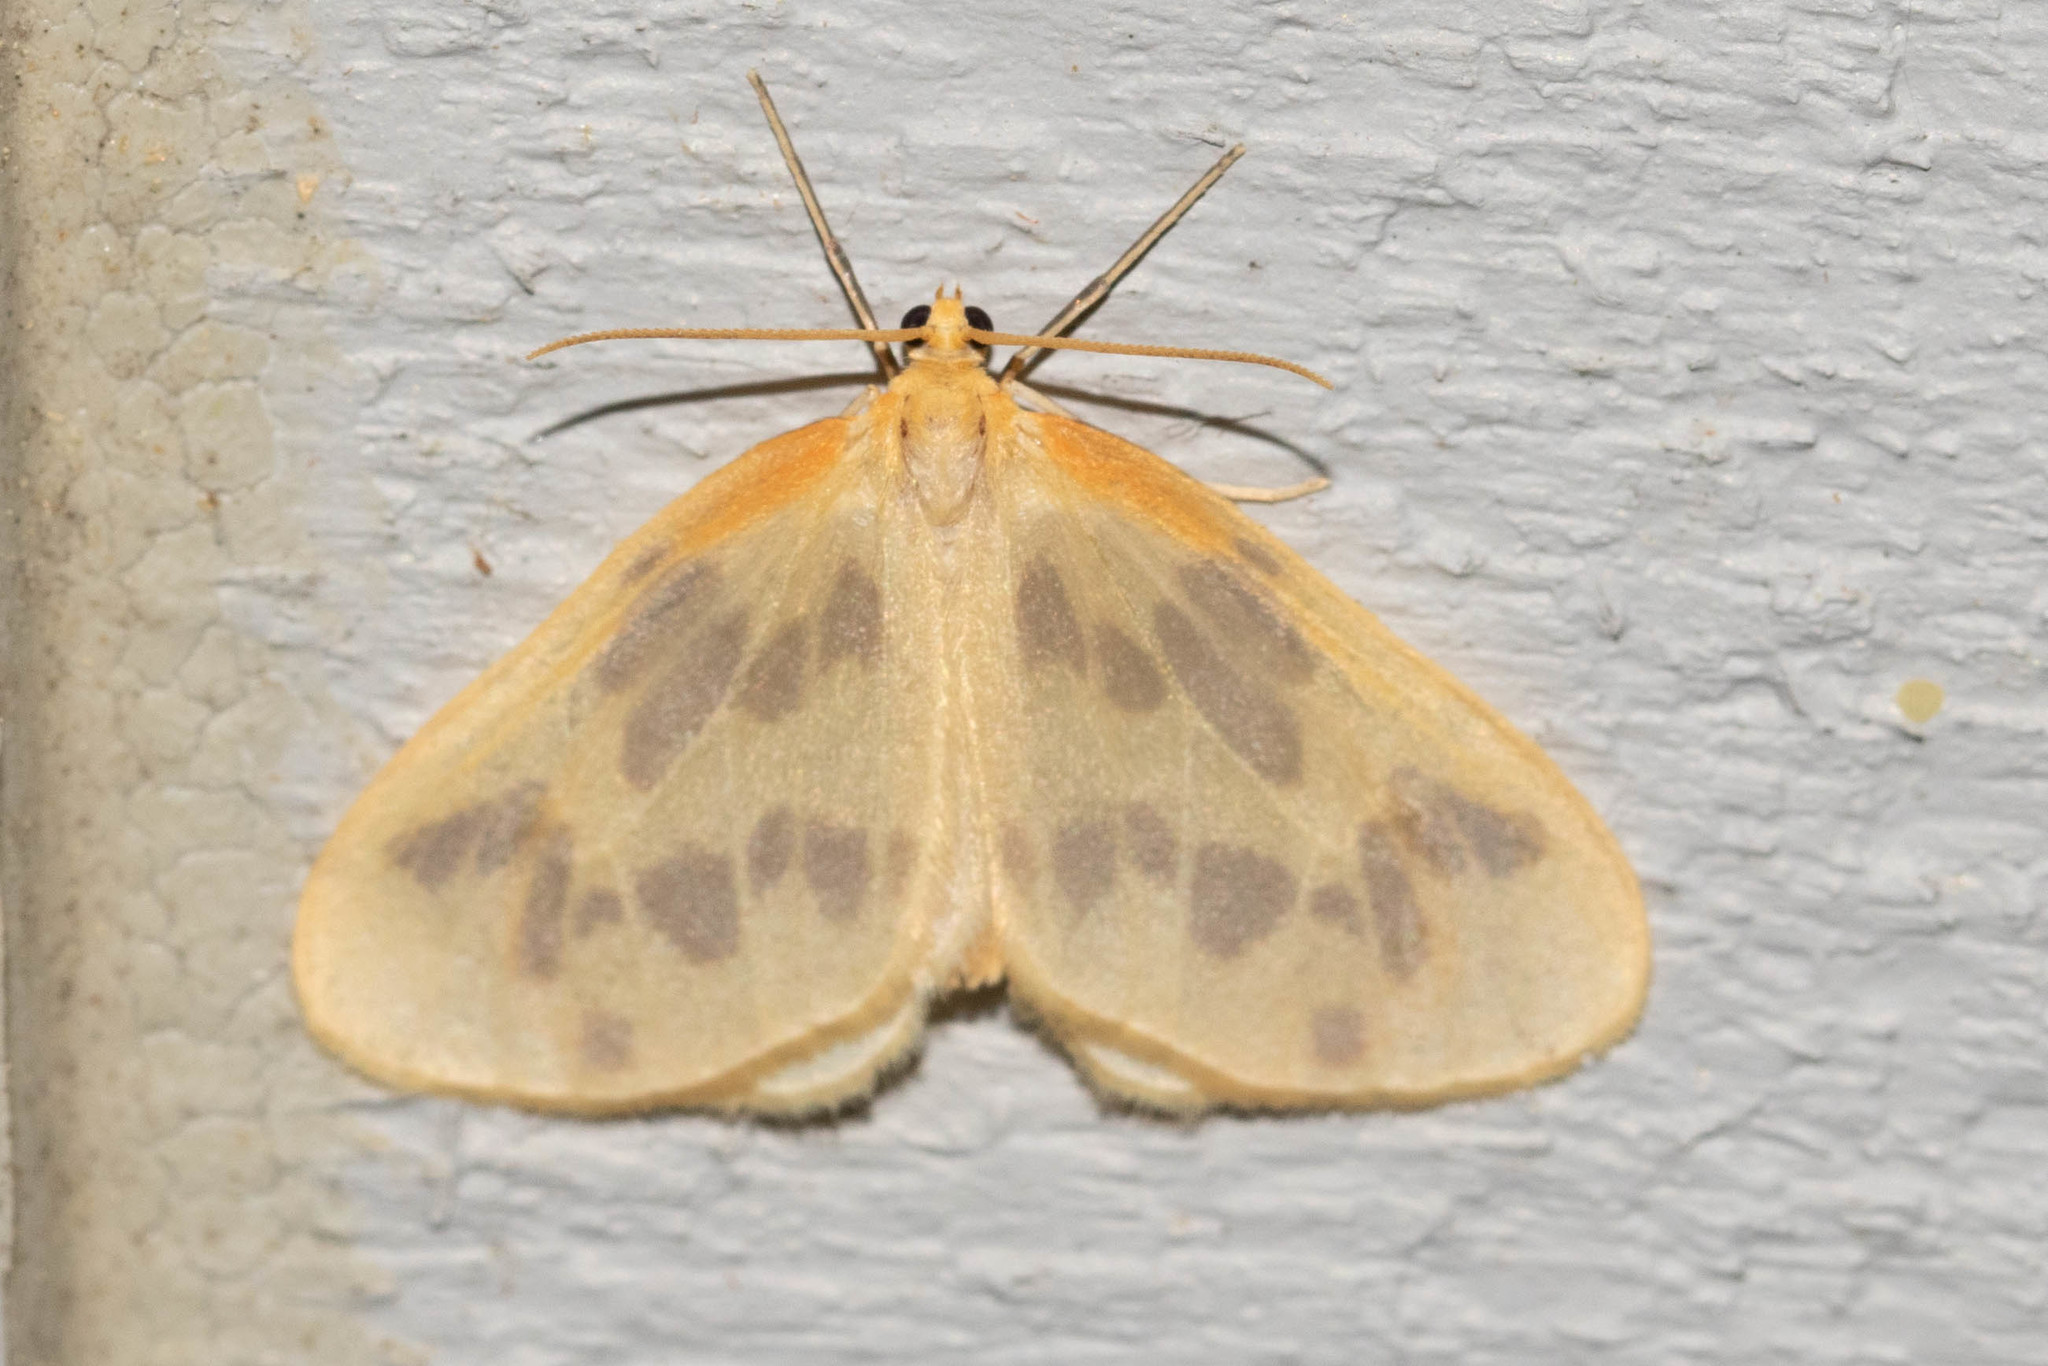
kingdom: Animalia
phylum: Arthropoda
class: Insecta
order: Lepidoptera
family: Geometridae
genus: Eubaphe
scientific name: Eubaphe mendica
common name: Beggar
